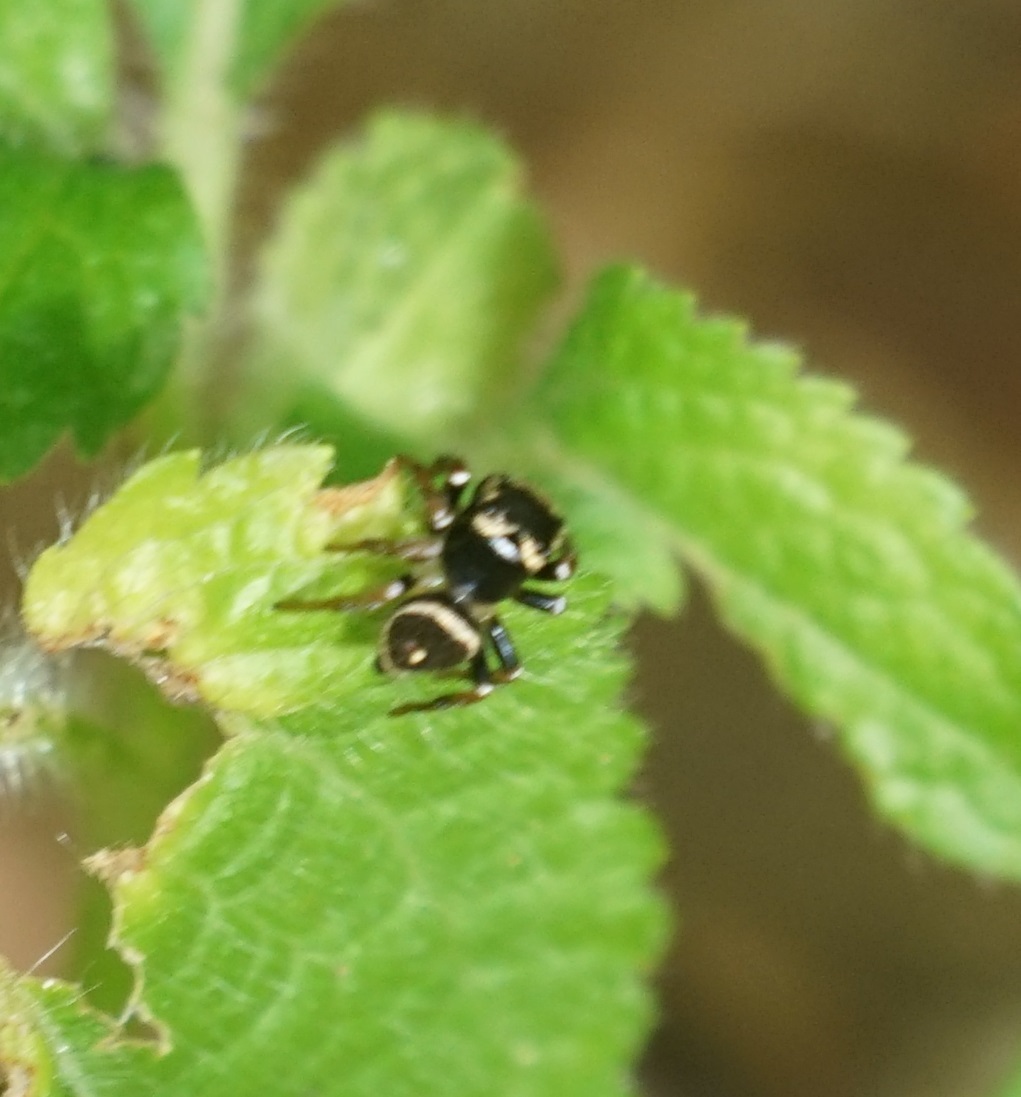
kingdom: Animalia
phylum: Arthropoda
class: Arachnida
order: Araneae
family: Salticidae
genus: Zenodorus
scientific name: Zenodorus orbiculatus
